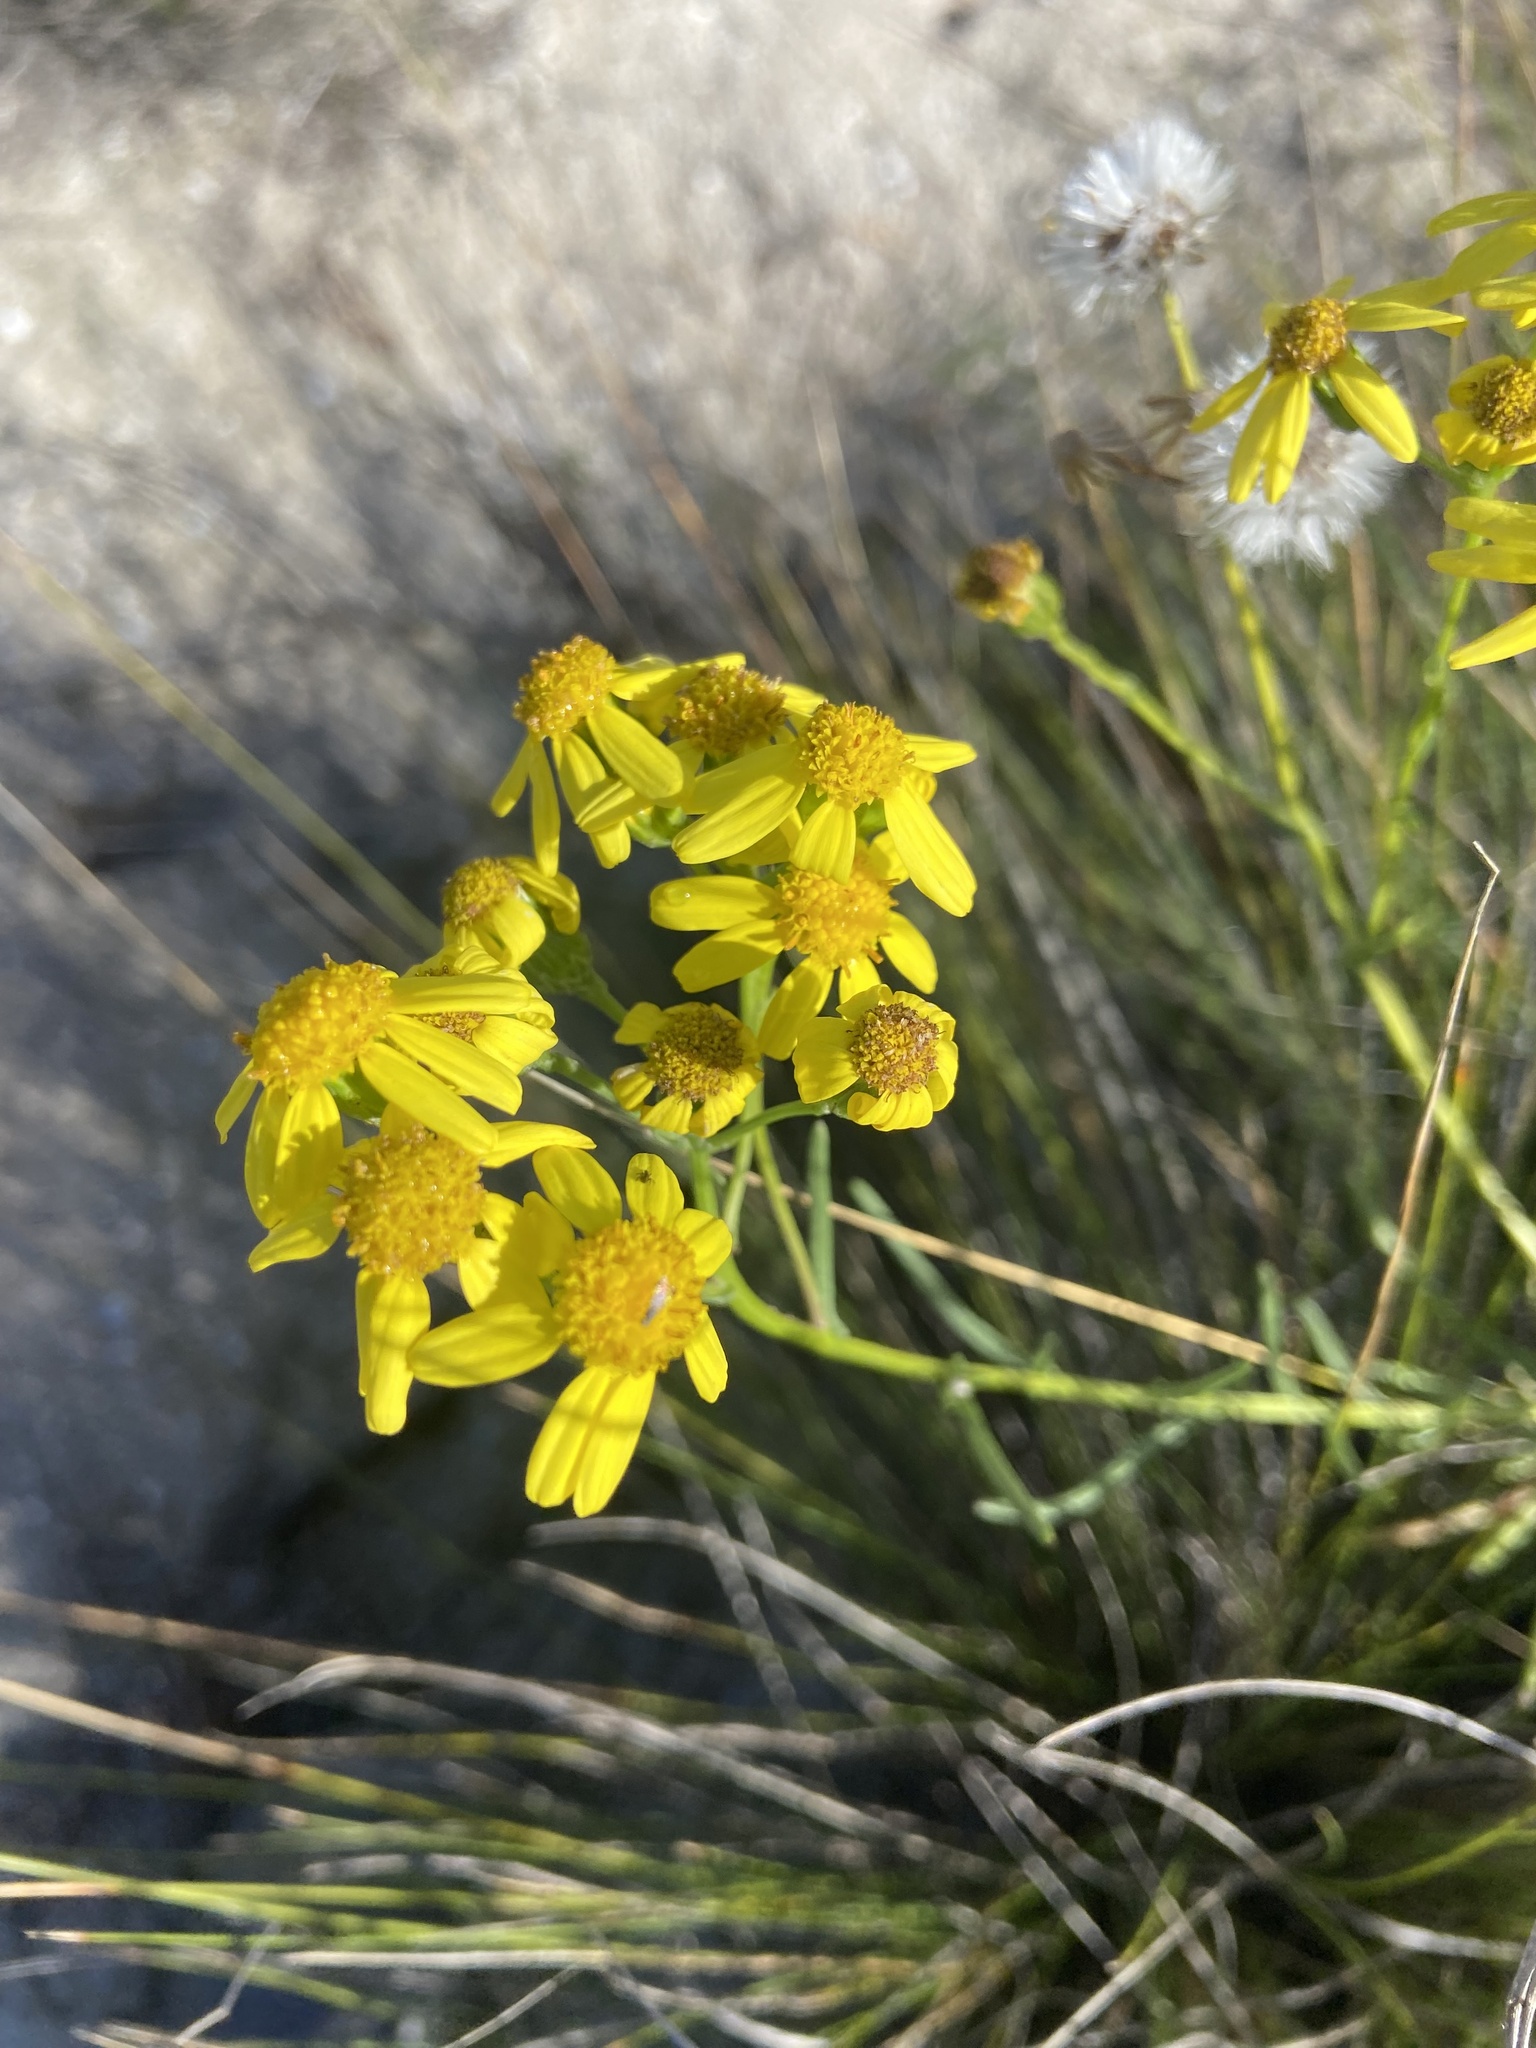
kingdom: Plantae
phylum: Tracheophyta
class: Magnoliopsida
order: Asterales
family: Asteraceae
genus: Senecio
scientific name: Senecio burchellii
